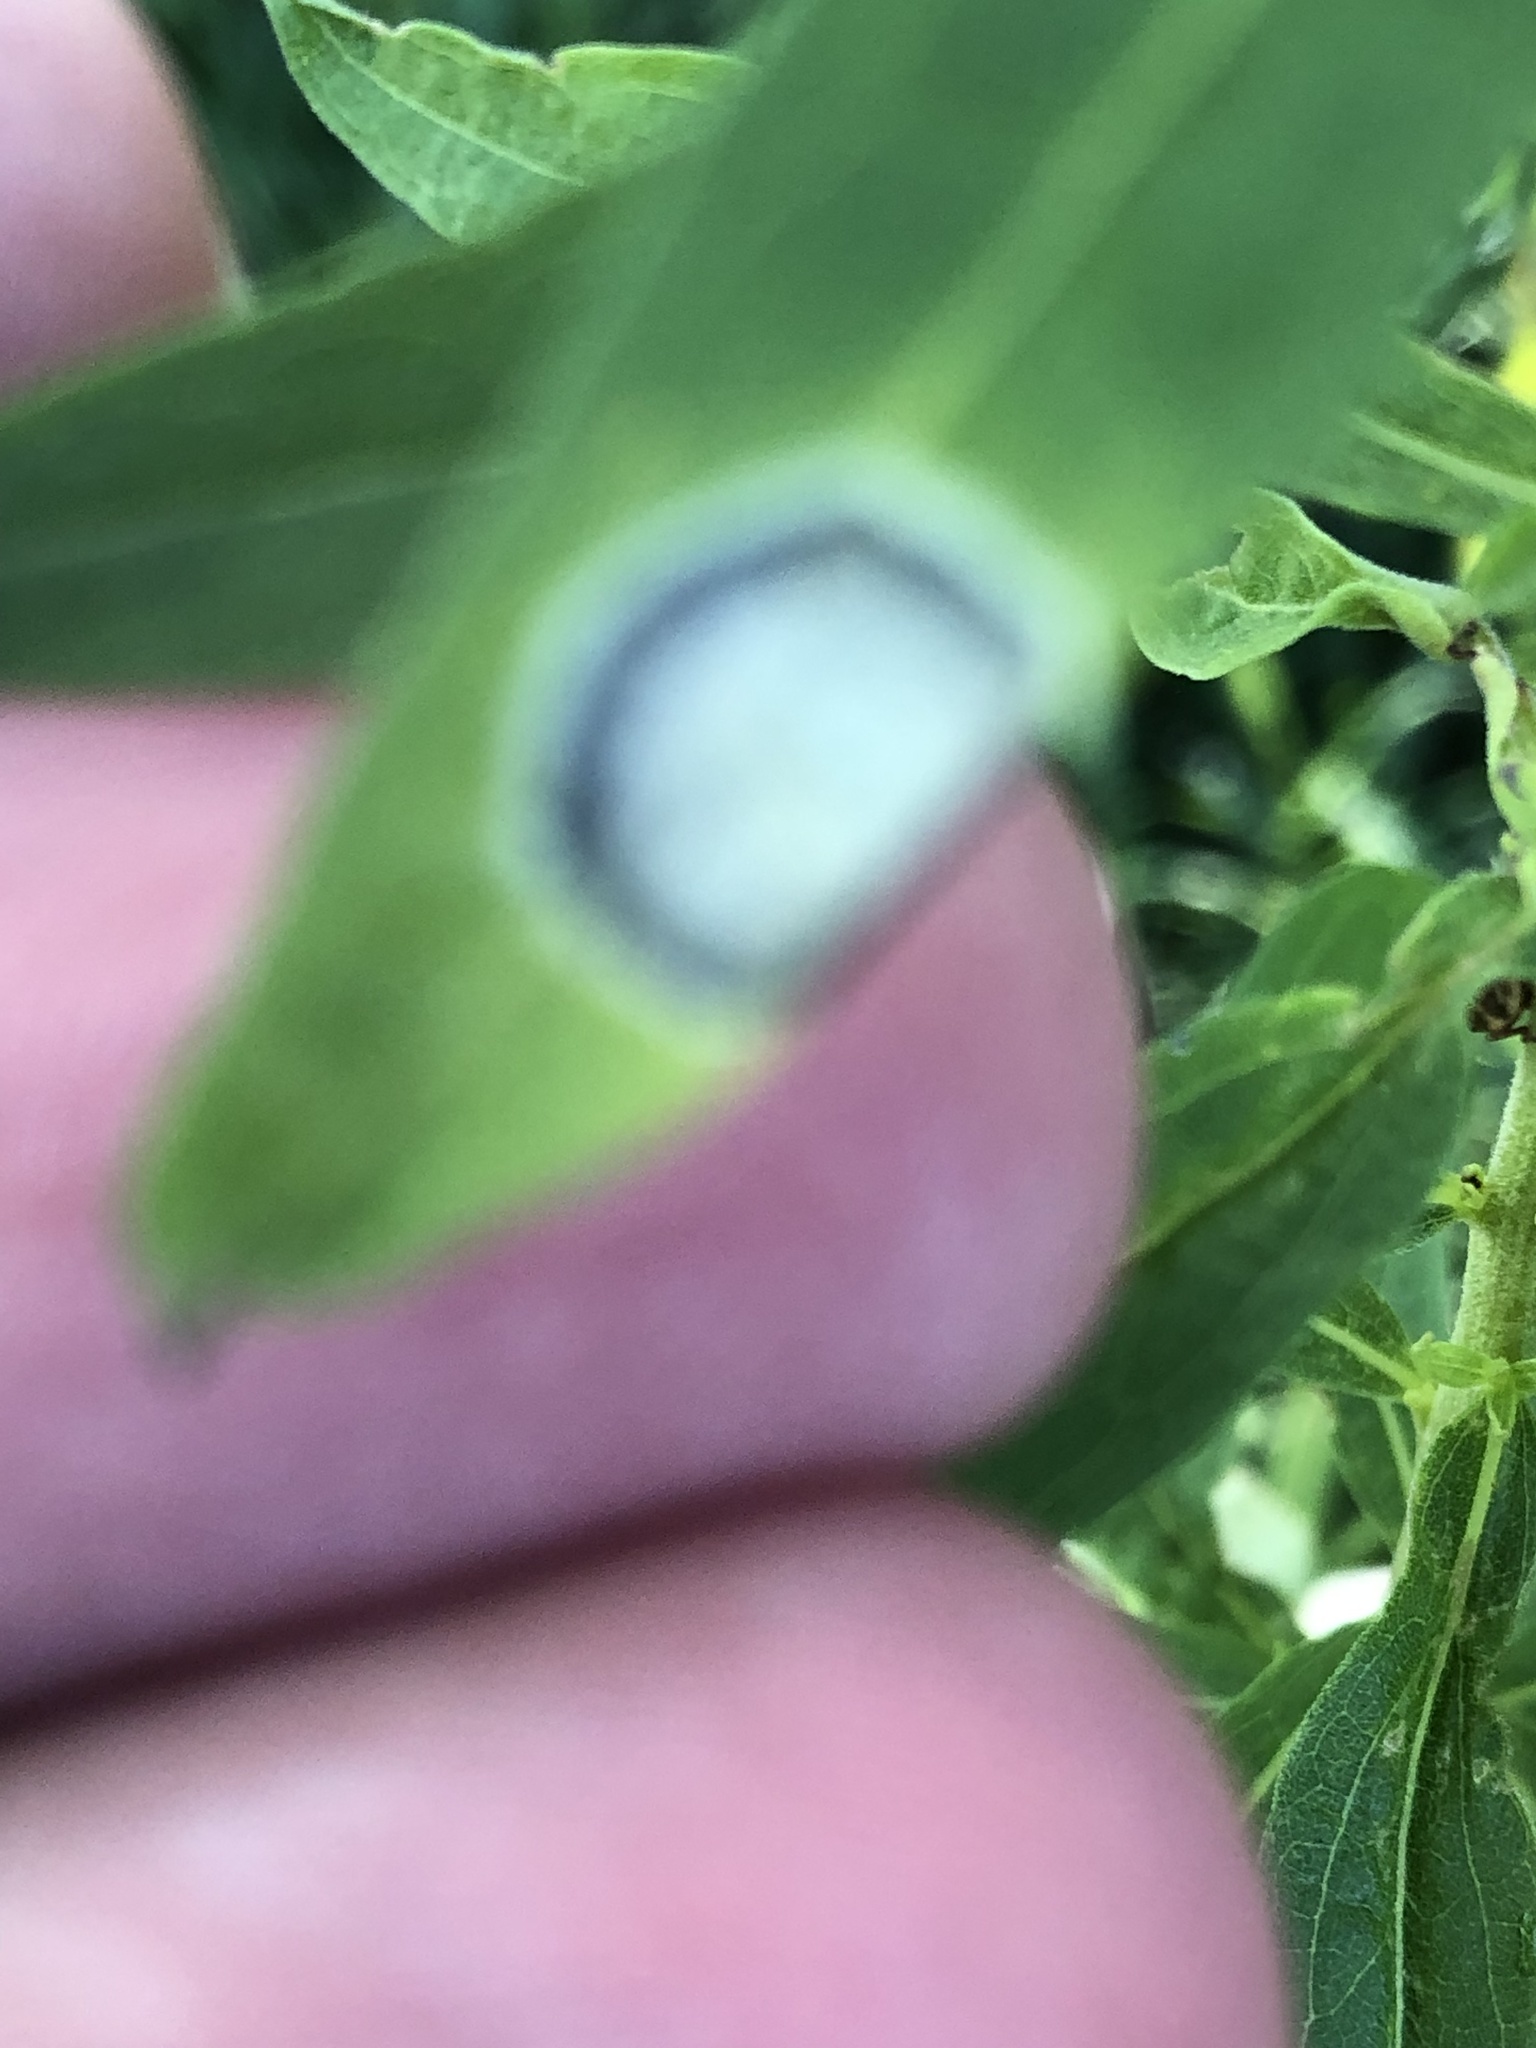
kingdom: Animalia
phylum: Arthropoda
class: Insecta
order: Diptera
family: Cecidomyiidae
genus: Asteromyia
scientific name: Asteromyia carbonifera
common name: Carbonifera goldenrod gall midge
